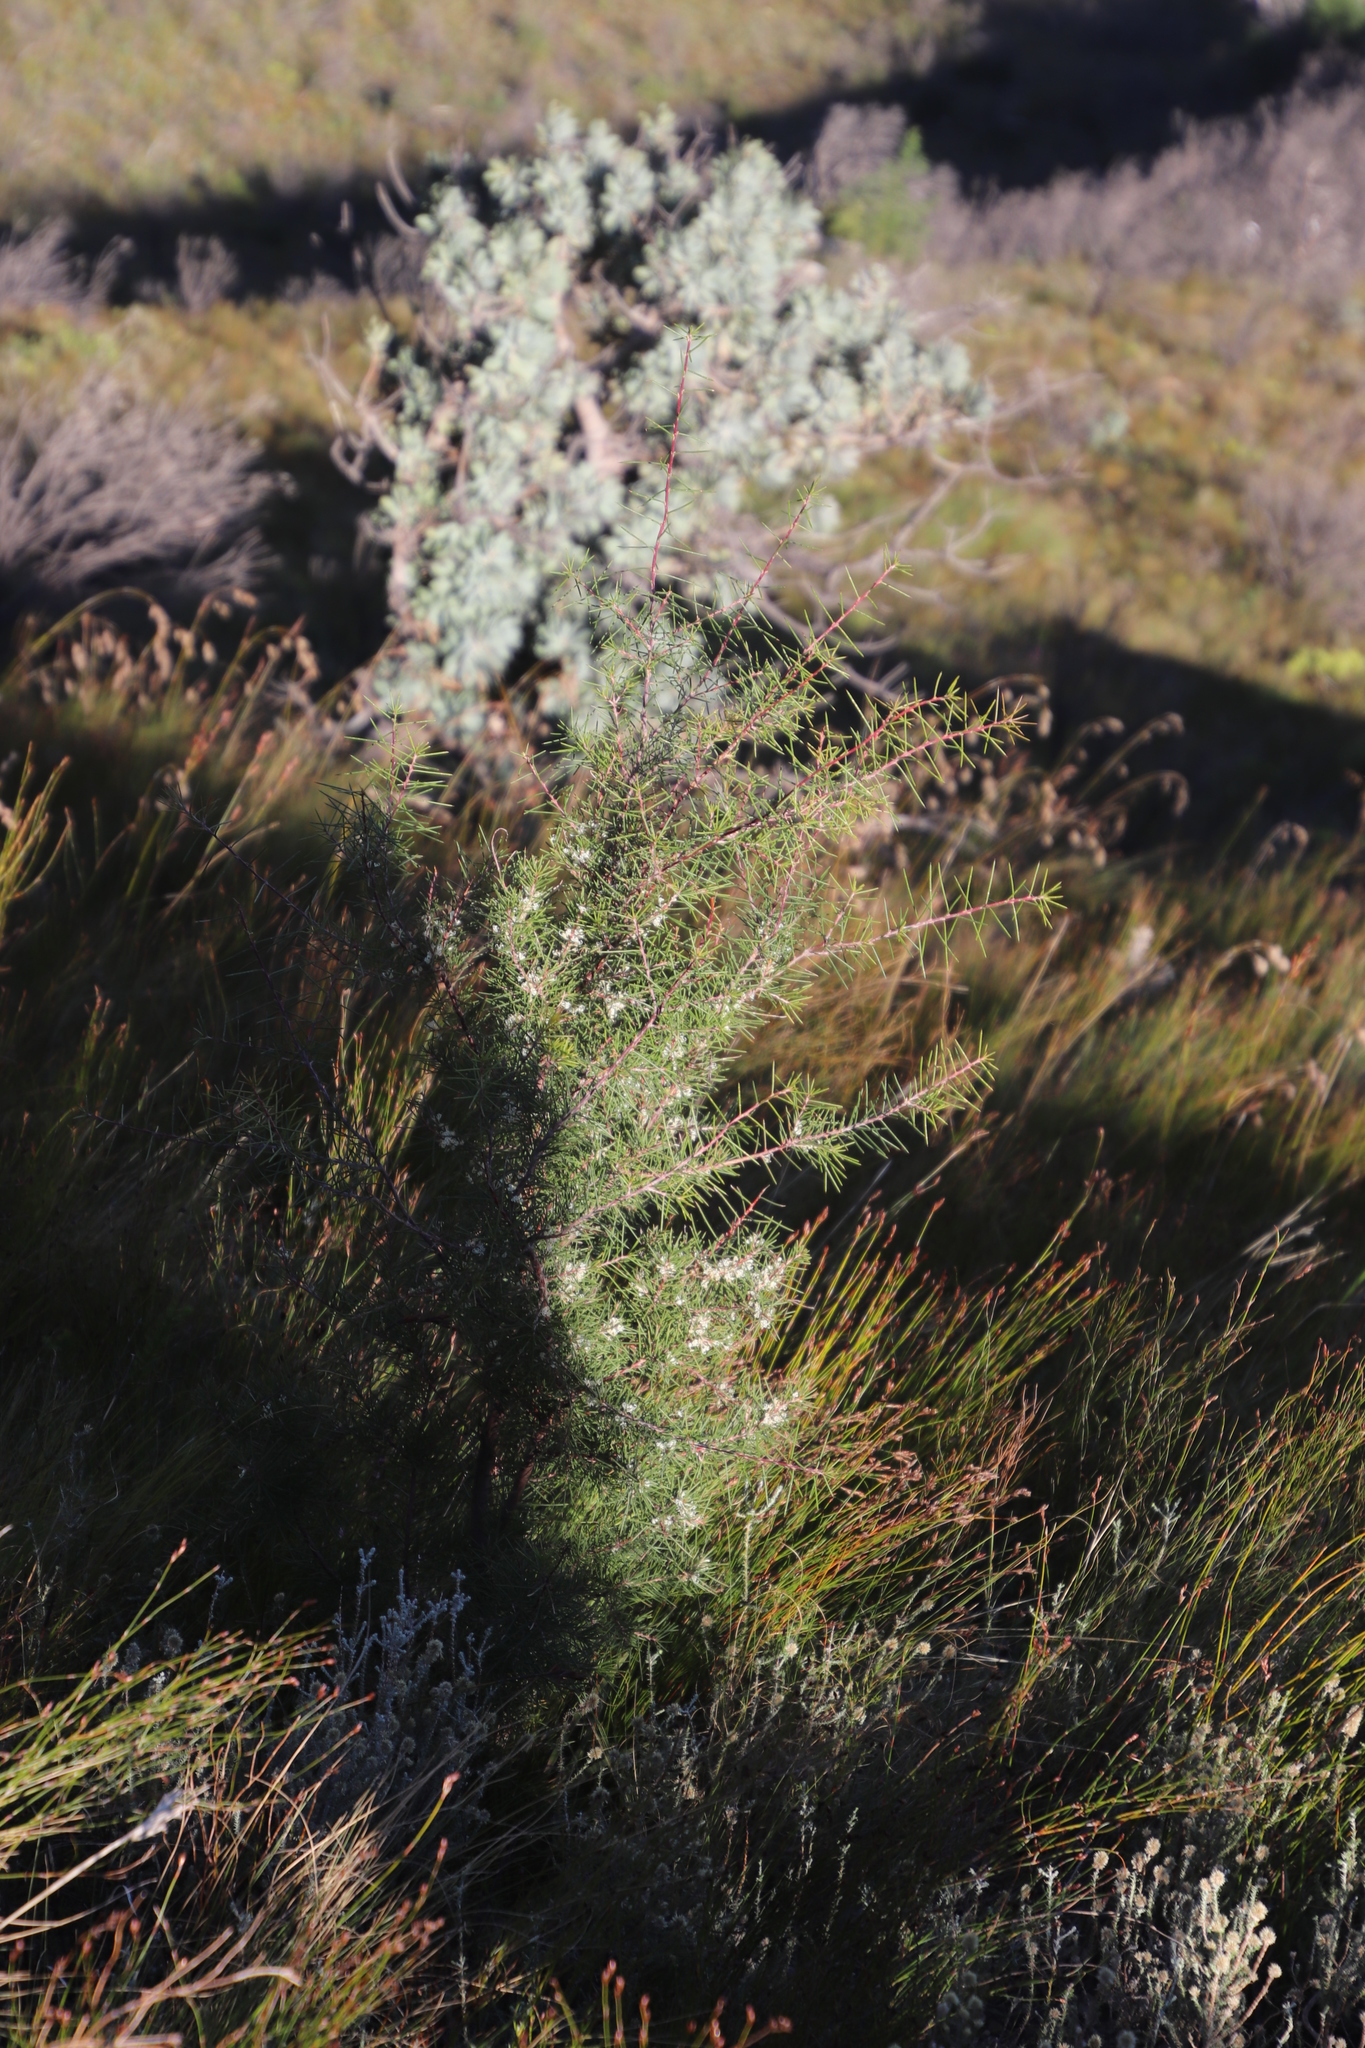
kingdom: Plantae
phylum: Tracheophyta
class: Magnoliopsida
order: Proteales
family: Proteaceae
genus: Hakea
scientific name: Hakea sericea
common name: Needle bush
